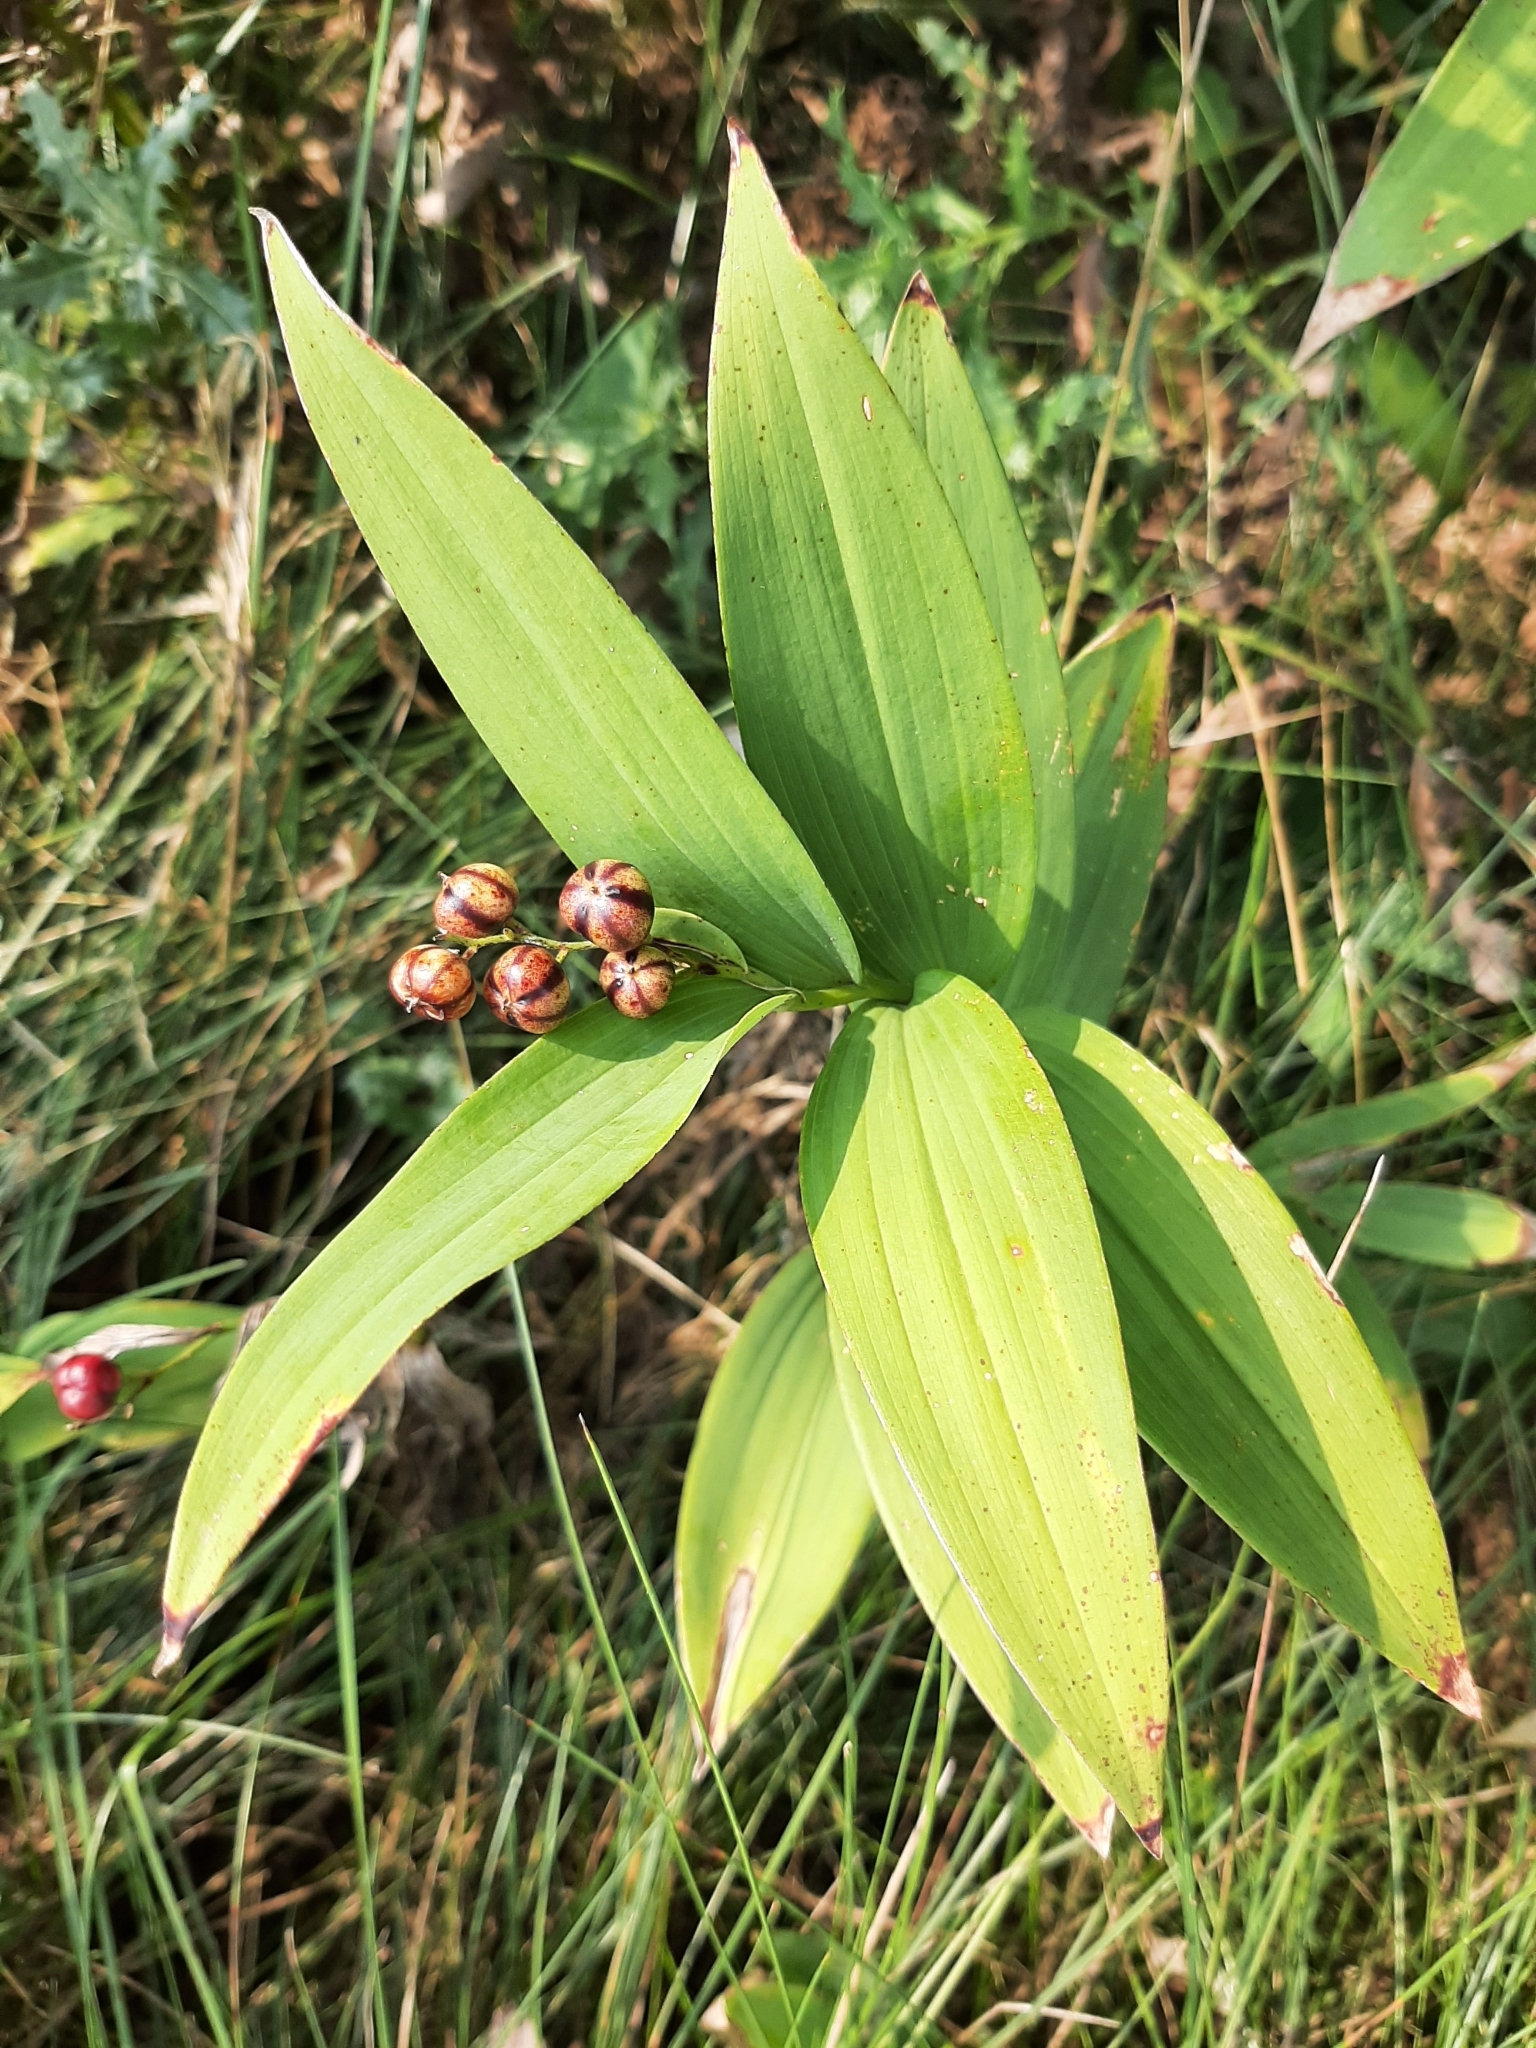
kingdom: Plantae
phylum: Tracheophyta
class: Liliopsida
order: Asparagales
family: Asparagaceae
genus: Maianthemum
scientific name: Maianthemum stellatum
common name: Little false solomon's seal
